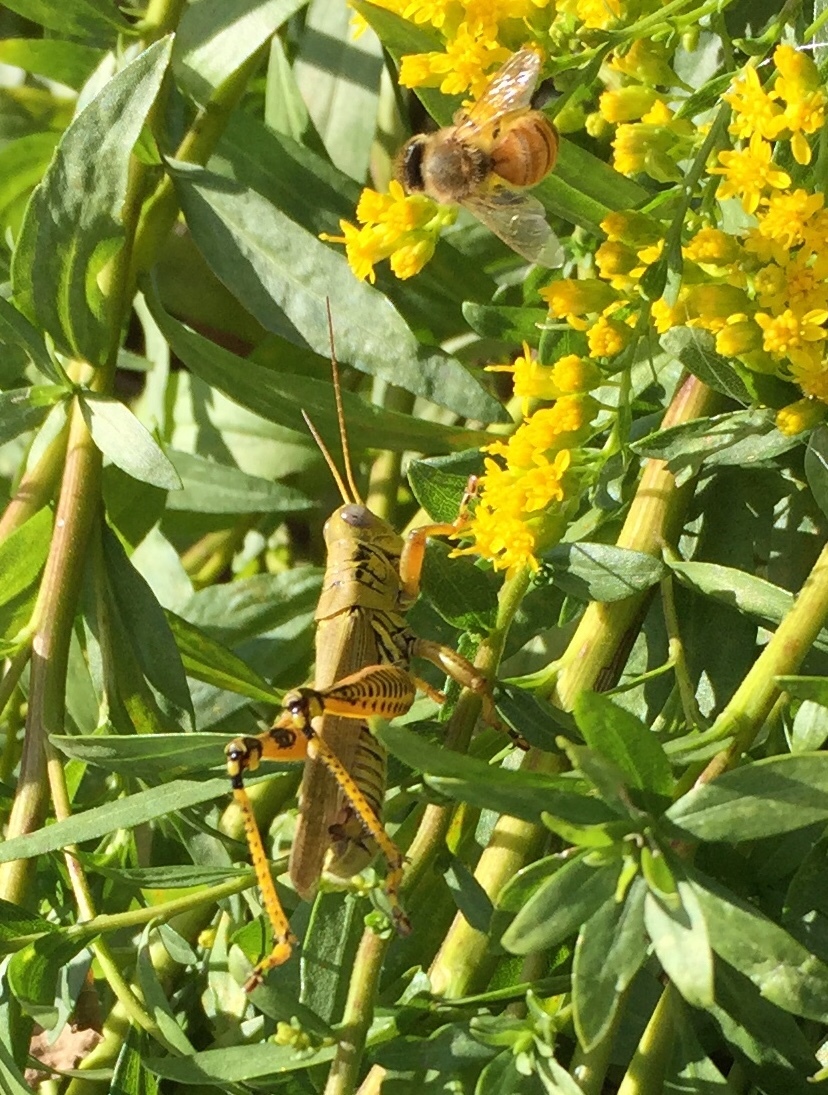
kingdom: Animalia
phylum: Arthropoda
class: Insecta
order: Orthoptera
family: Acrididae
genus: Melanoplus
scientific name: Melanoplus differentialis
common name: Differential grasshopper
